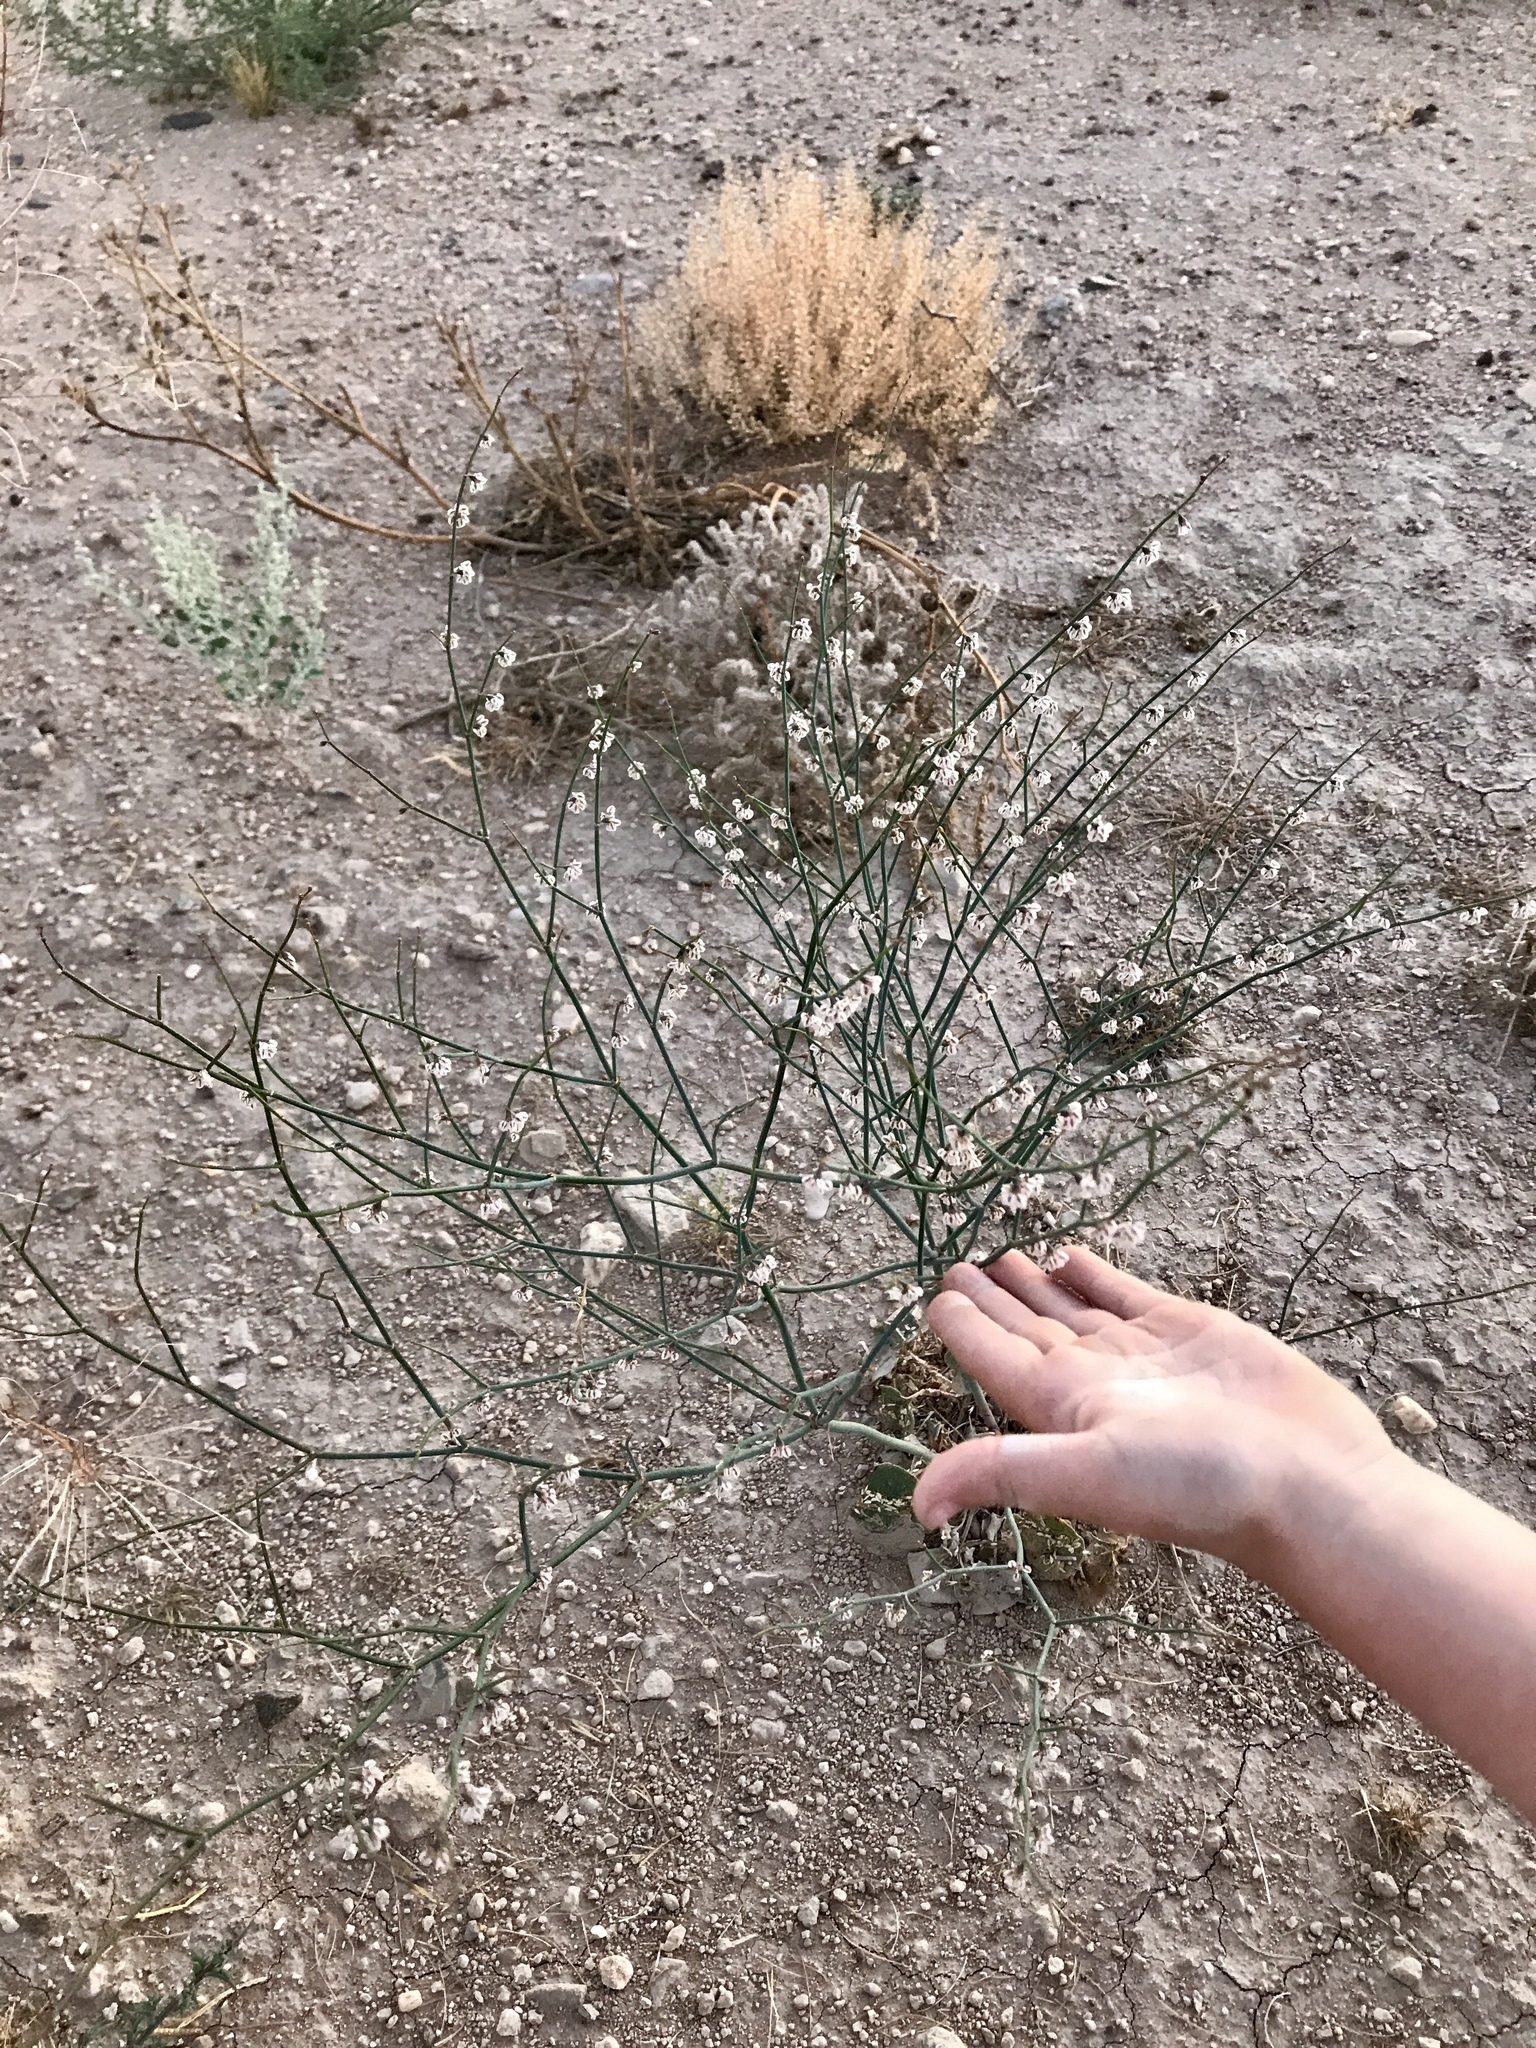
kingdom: Plantae
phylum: Tracheophyta
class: Magnoliopsida
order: Caryophyllales
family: Polygonaceae
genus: Eriogonum
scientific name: Eriogonum deflexum
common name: Skeleton-weed
